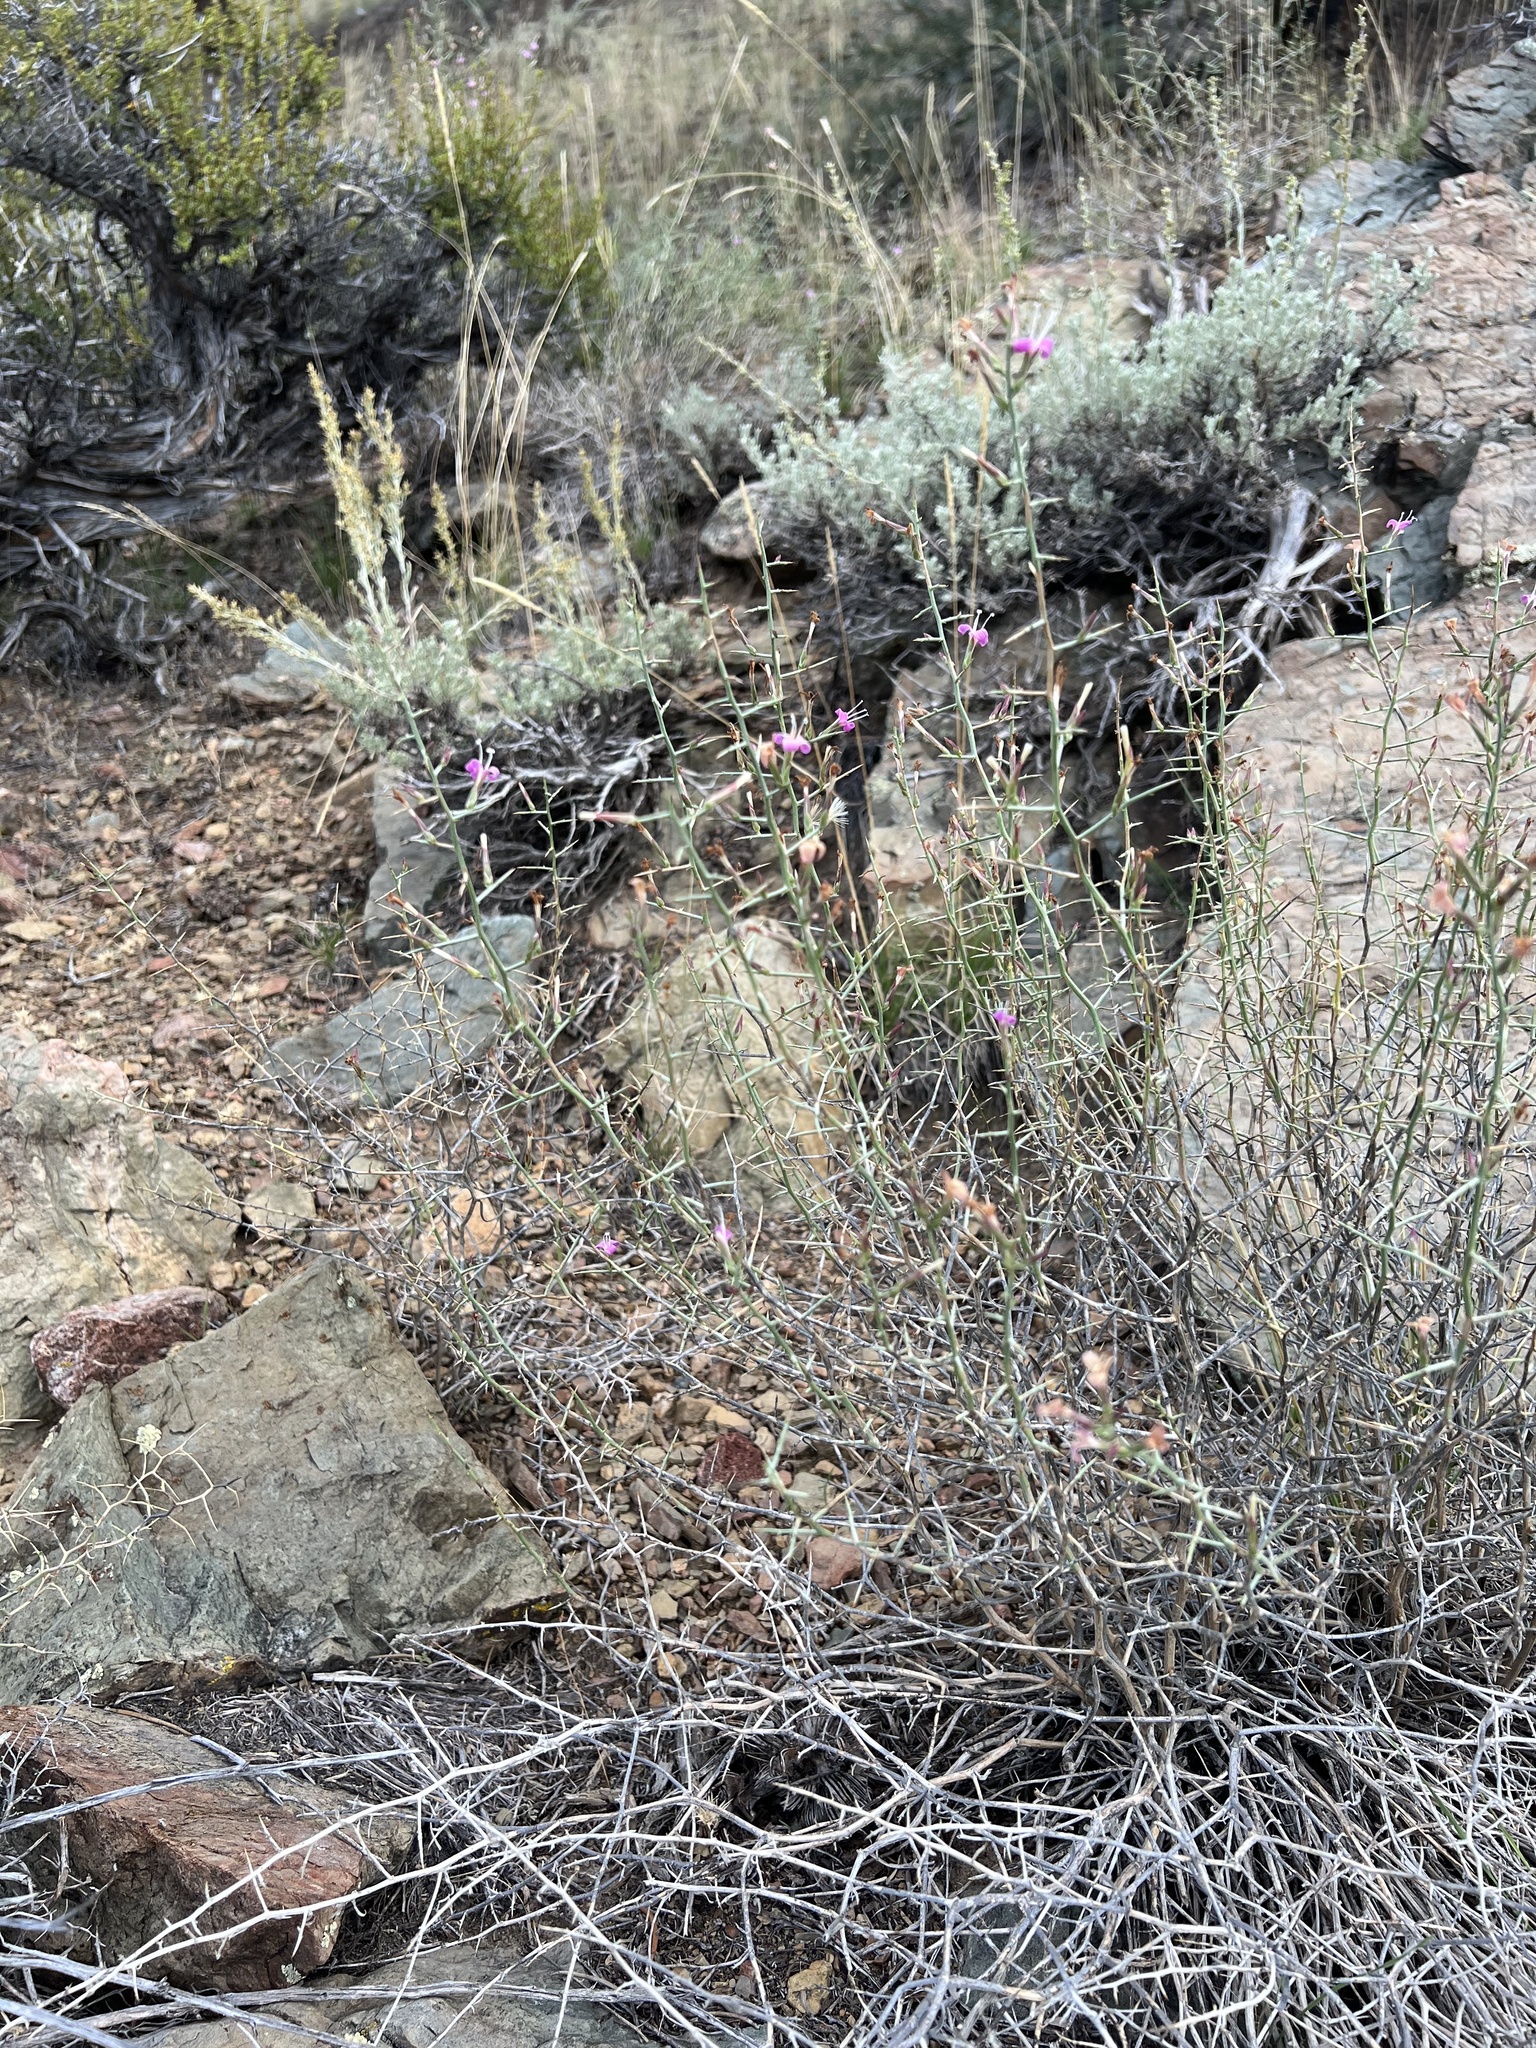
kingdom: Plantae
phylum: Tracheophyta
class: Magnoliopsida
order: Asterales
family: Asteraceae
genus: Pleiacanthus
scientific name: Pleiacanthus spinosus
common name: Thorny skeleton-weed
